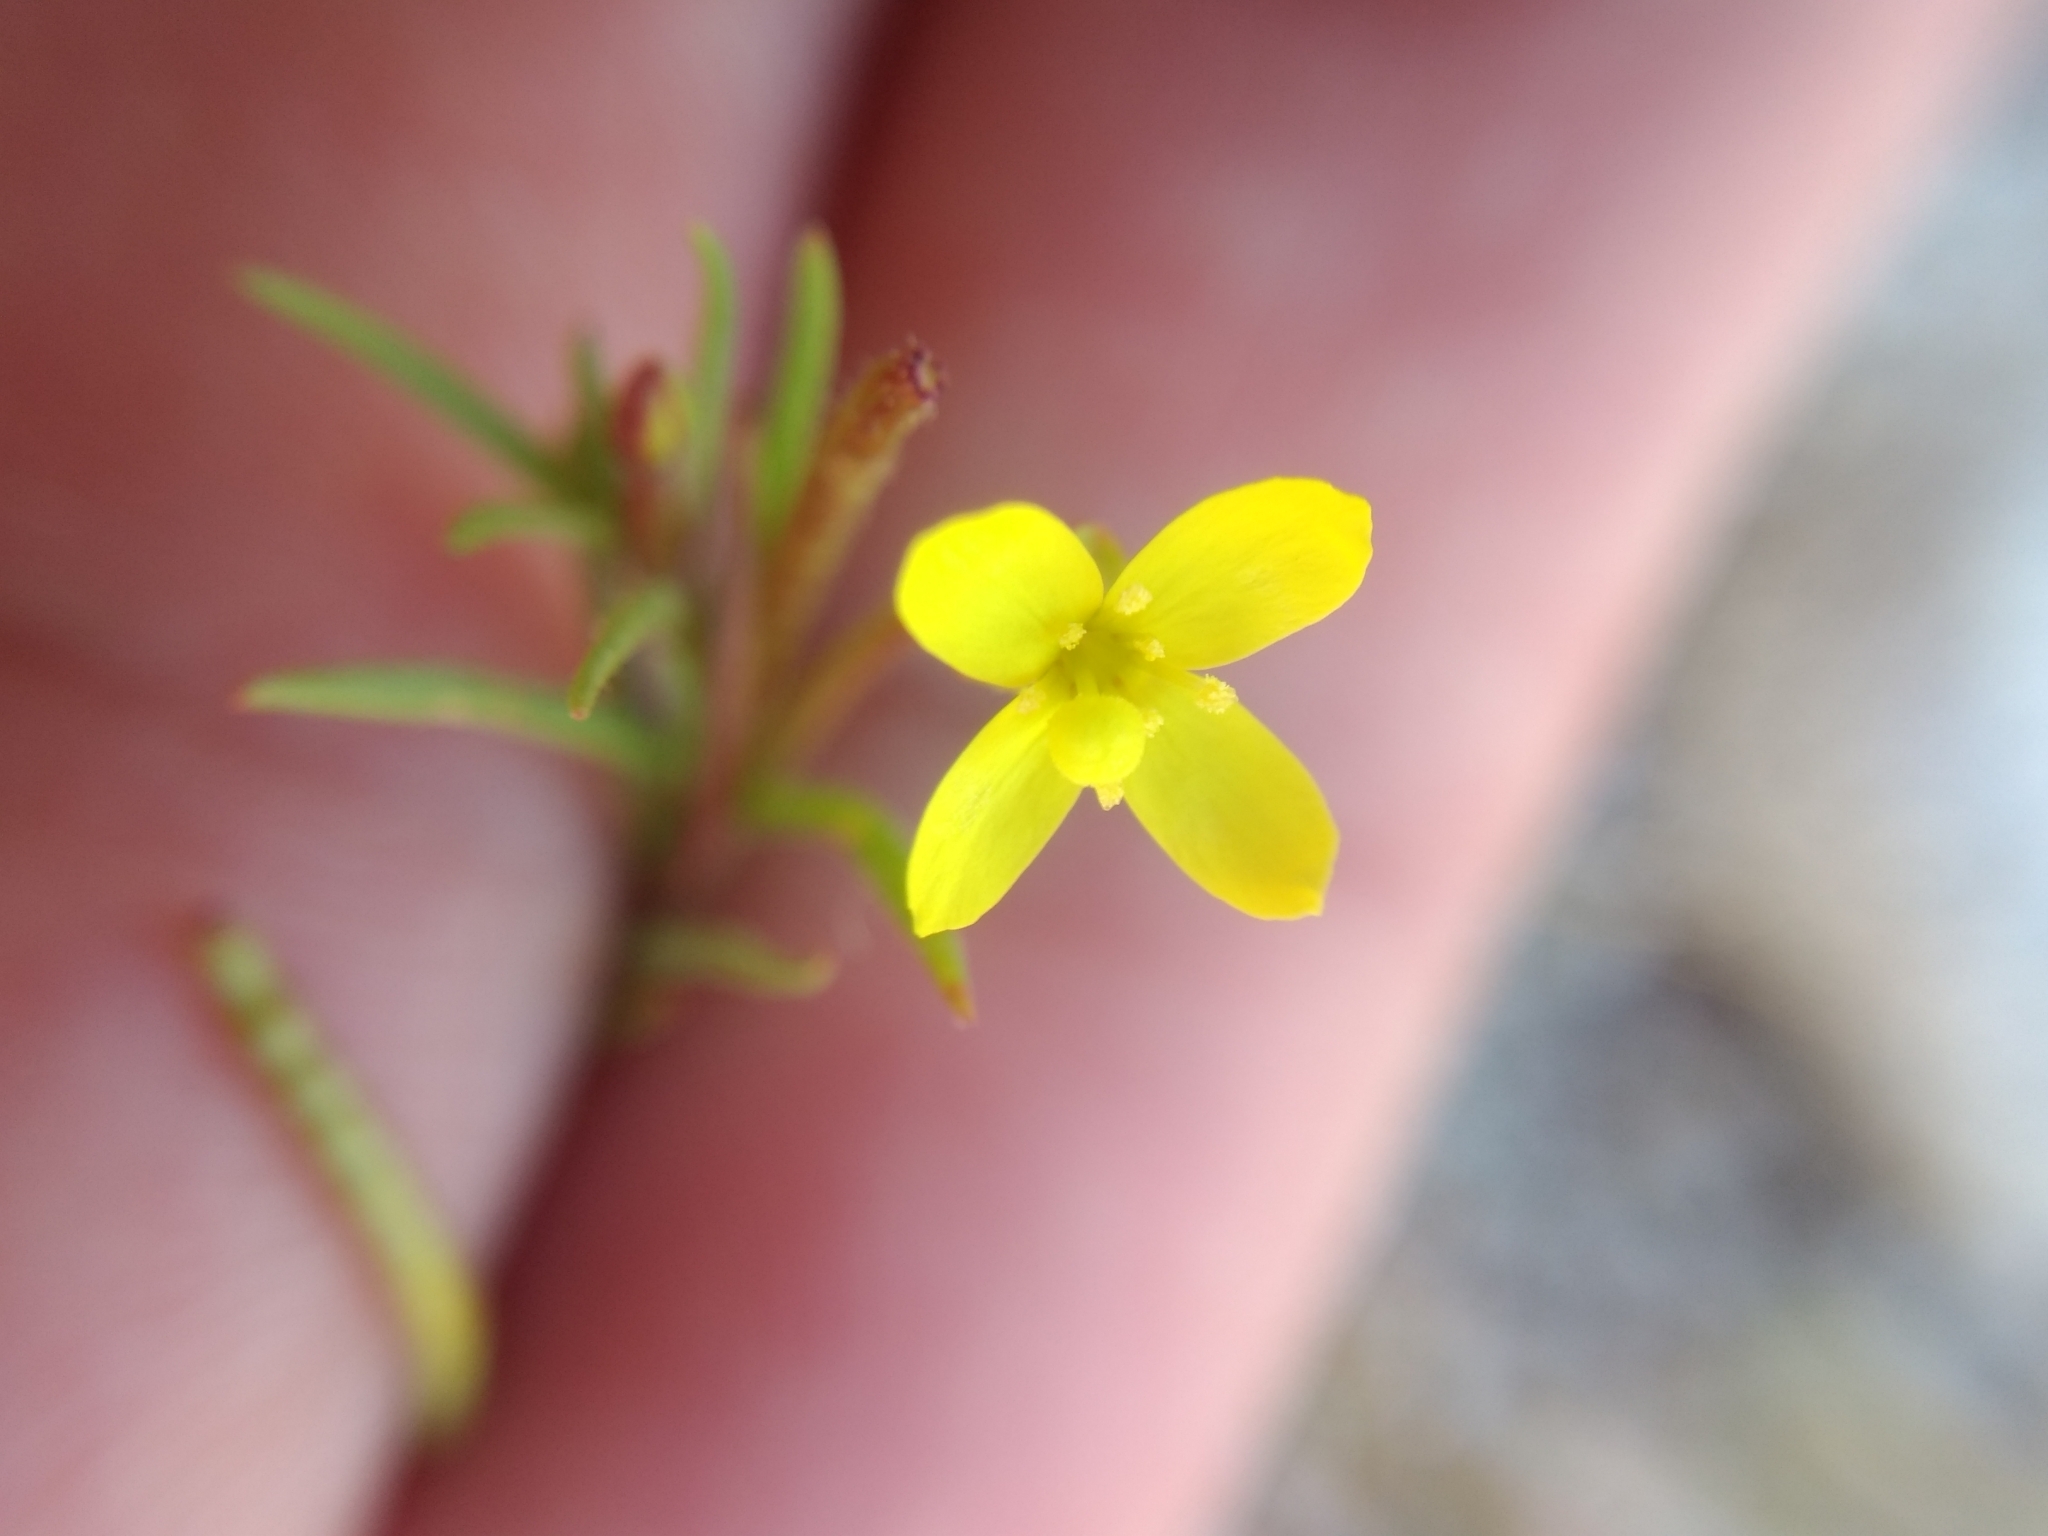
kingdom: Plantae
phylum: Tracheophyta
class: Magnoliopsida
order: Myrtales
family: Onagraceae
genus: Camissonia
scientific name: Camissonia strigulosa
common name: Contorted-primrose
